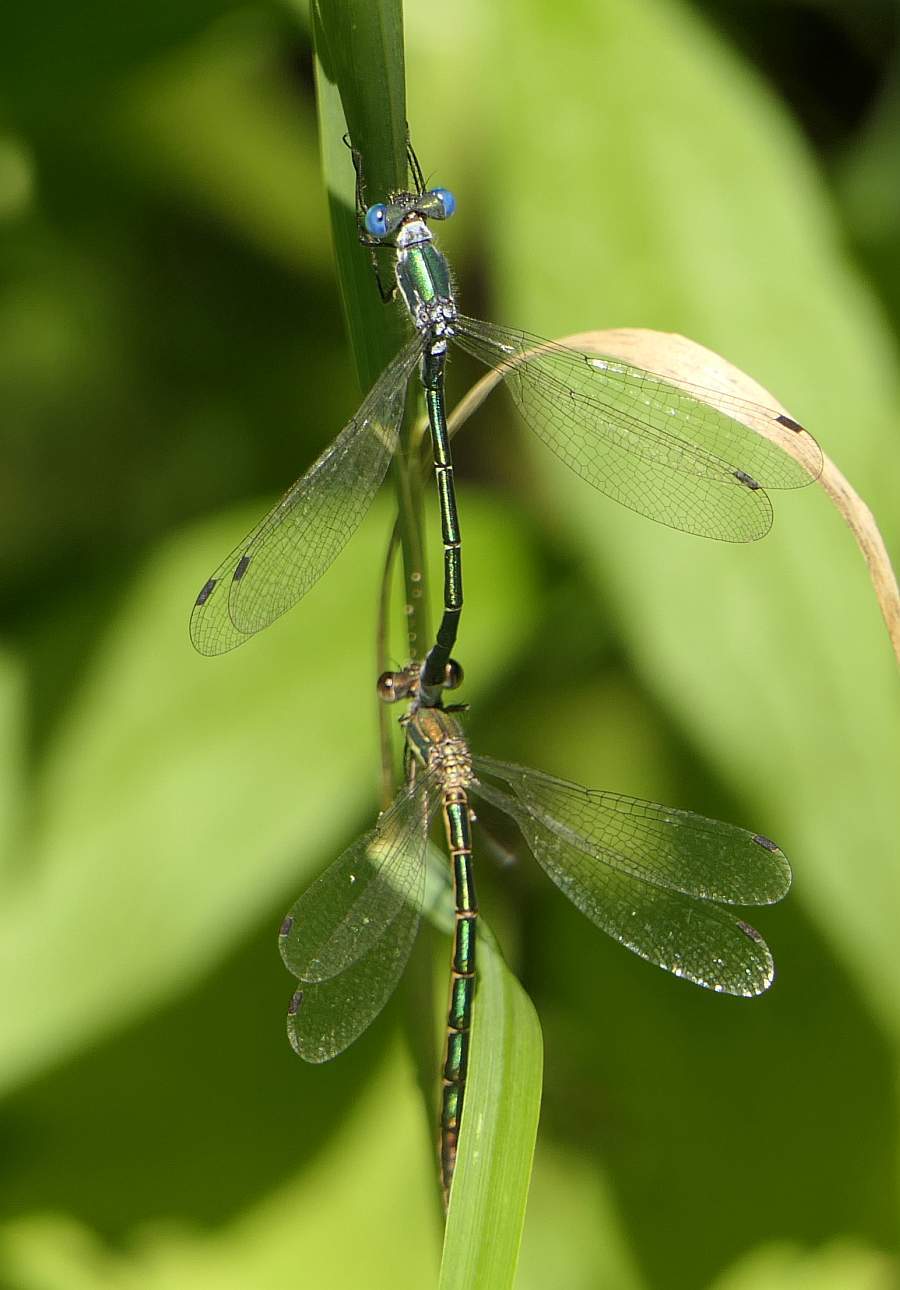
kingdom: Animalia
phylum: Arthropoda
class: Insecta
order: Odonata
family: Lestidae
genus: Lestes
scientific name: Lestes dryas
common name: Scarce emerald damselfly
